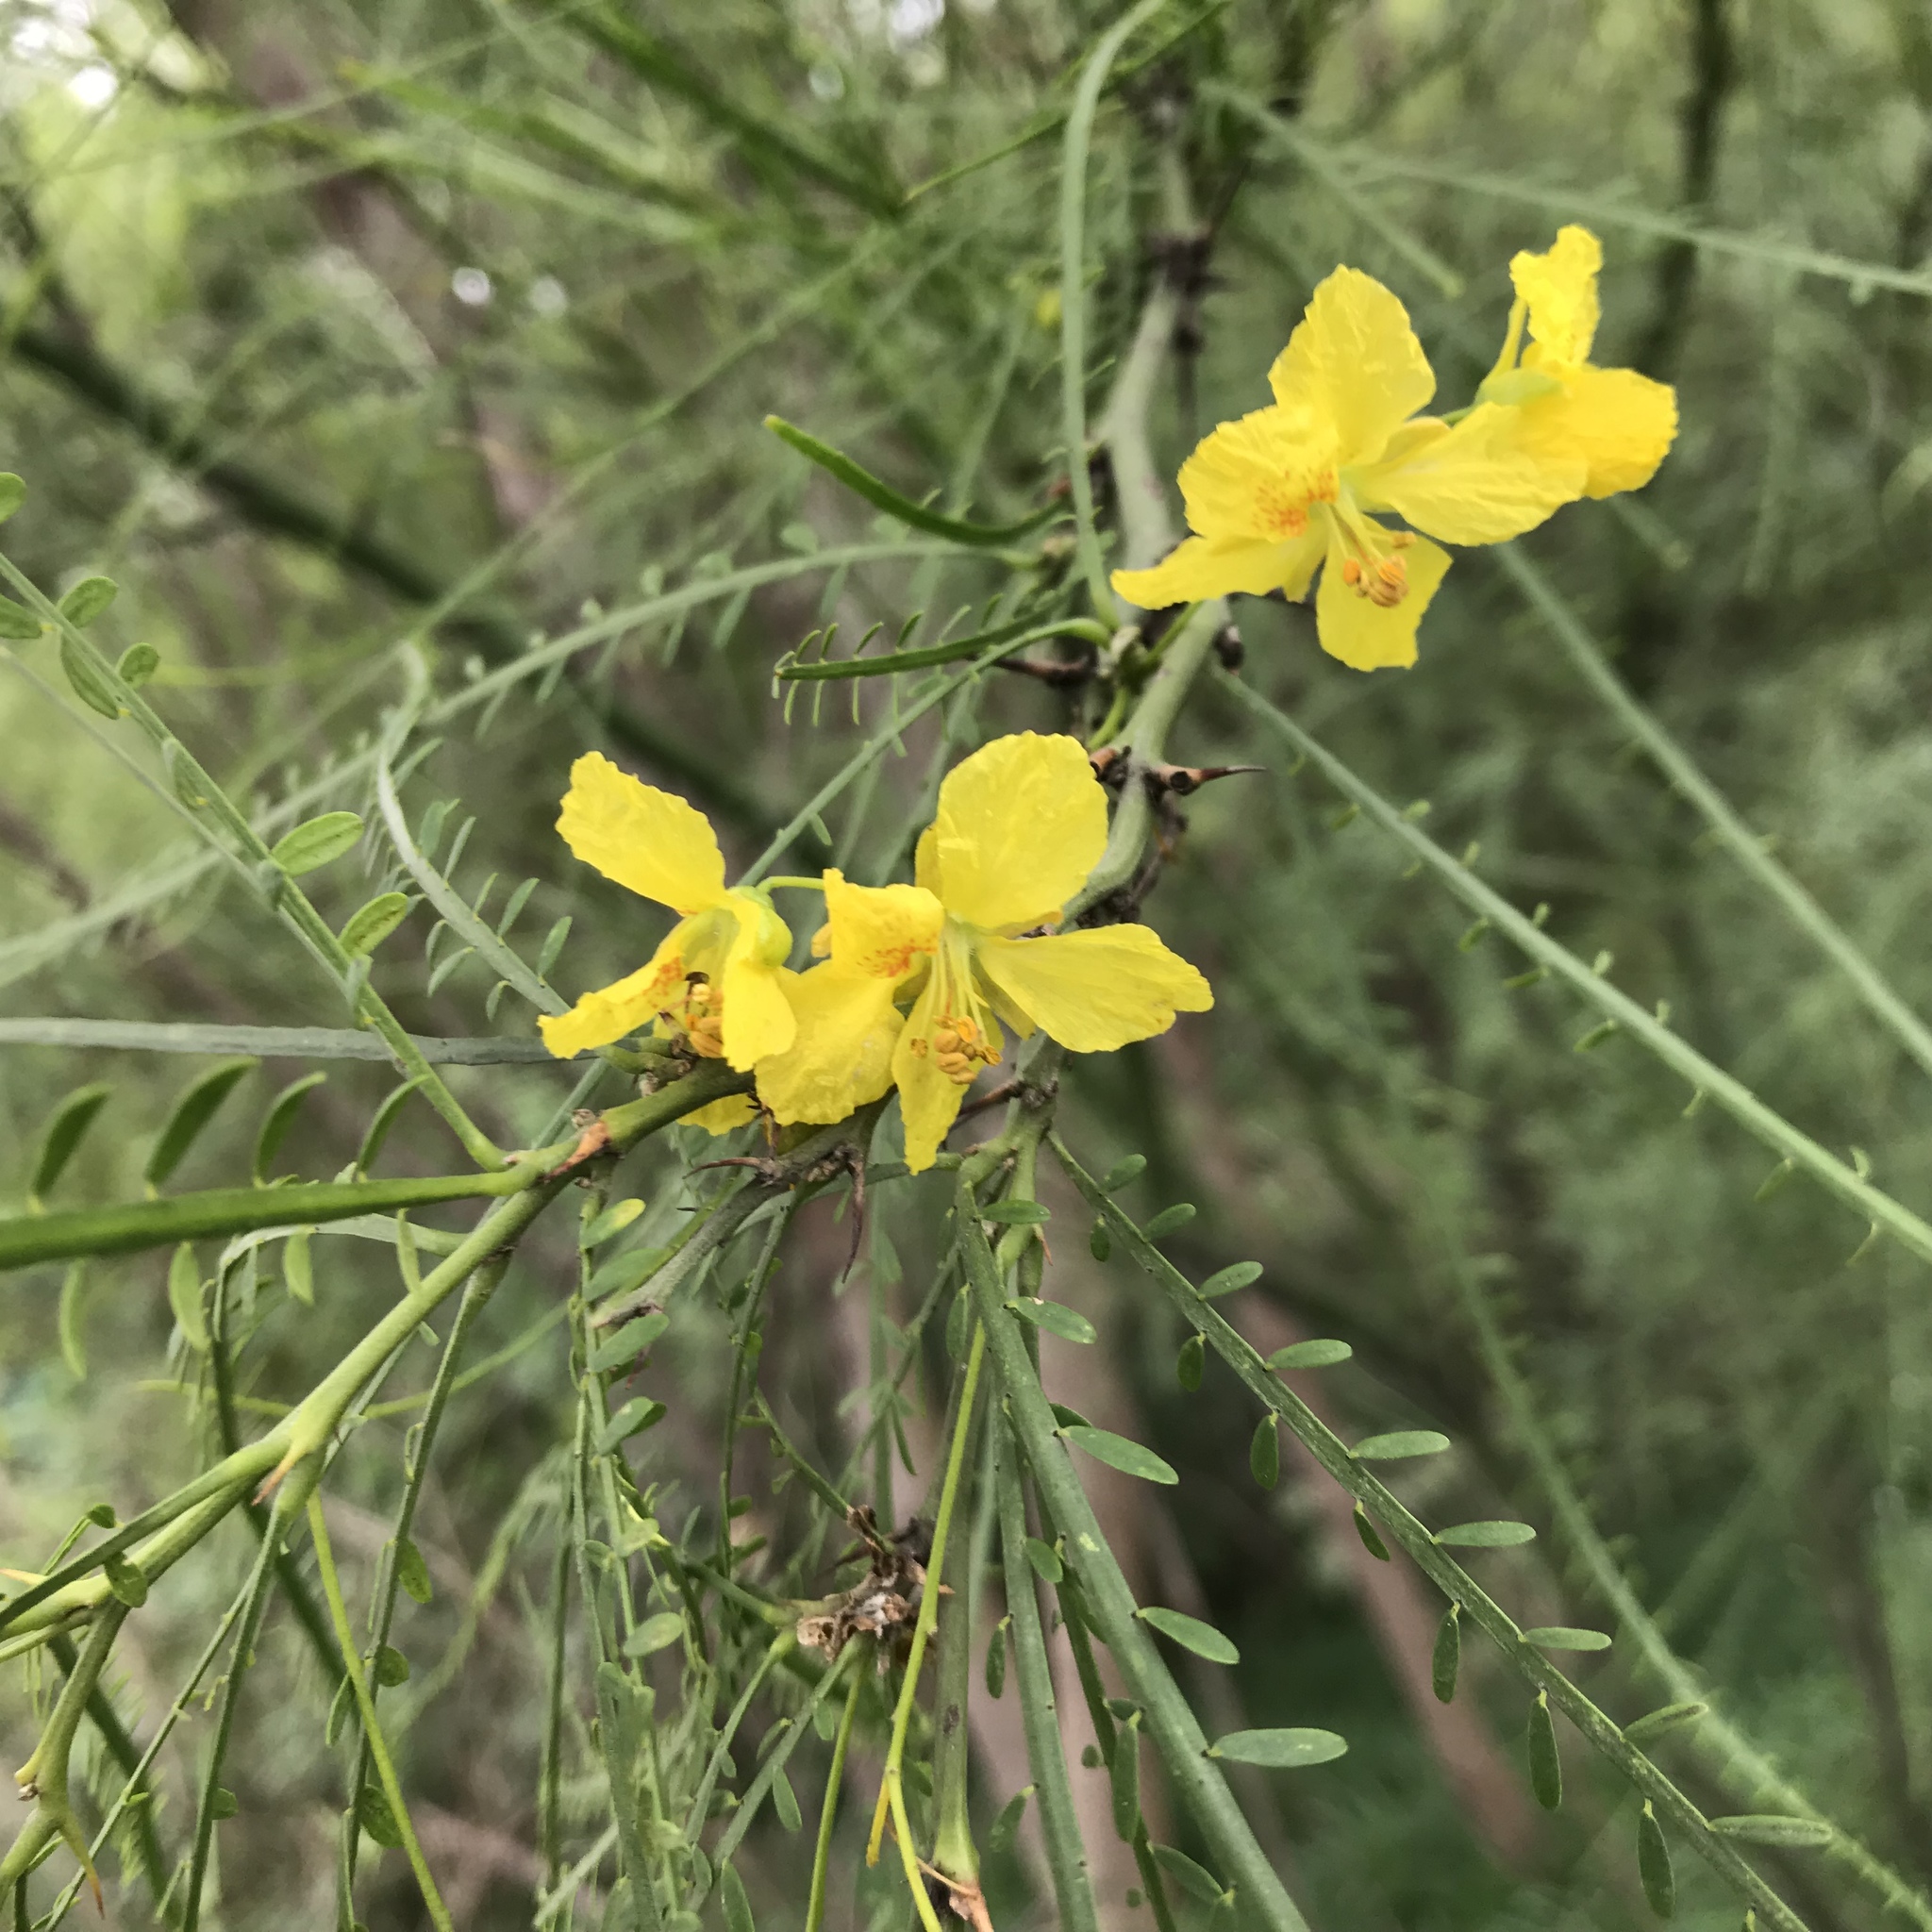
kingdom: Plantae
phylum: Tracheophyta
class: Magnoliopsida
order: Fabales
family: Fabaceae
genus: Parkinsonia
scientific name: Parkinsonia aculeata
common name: Jerusalem thorn
